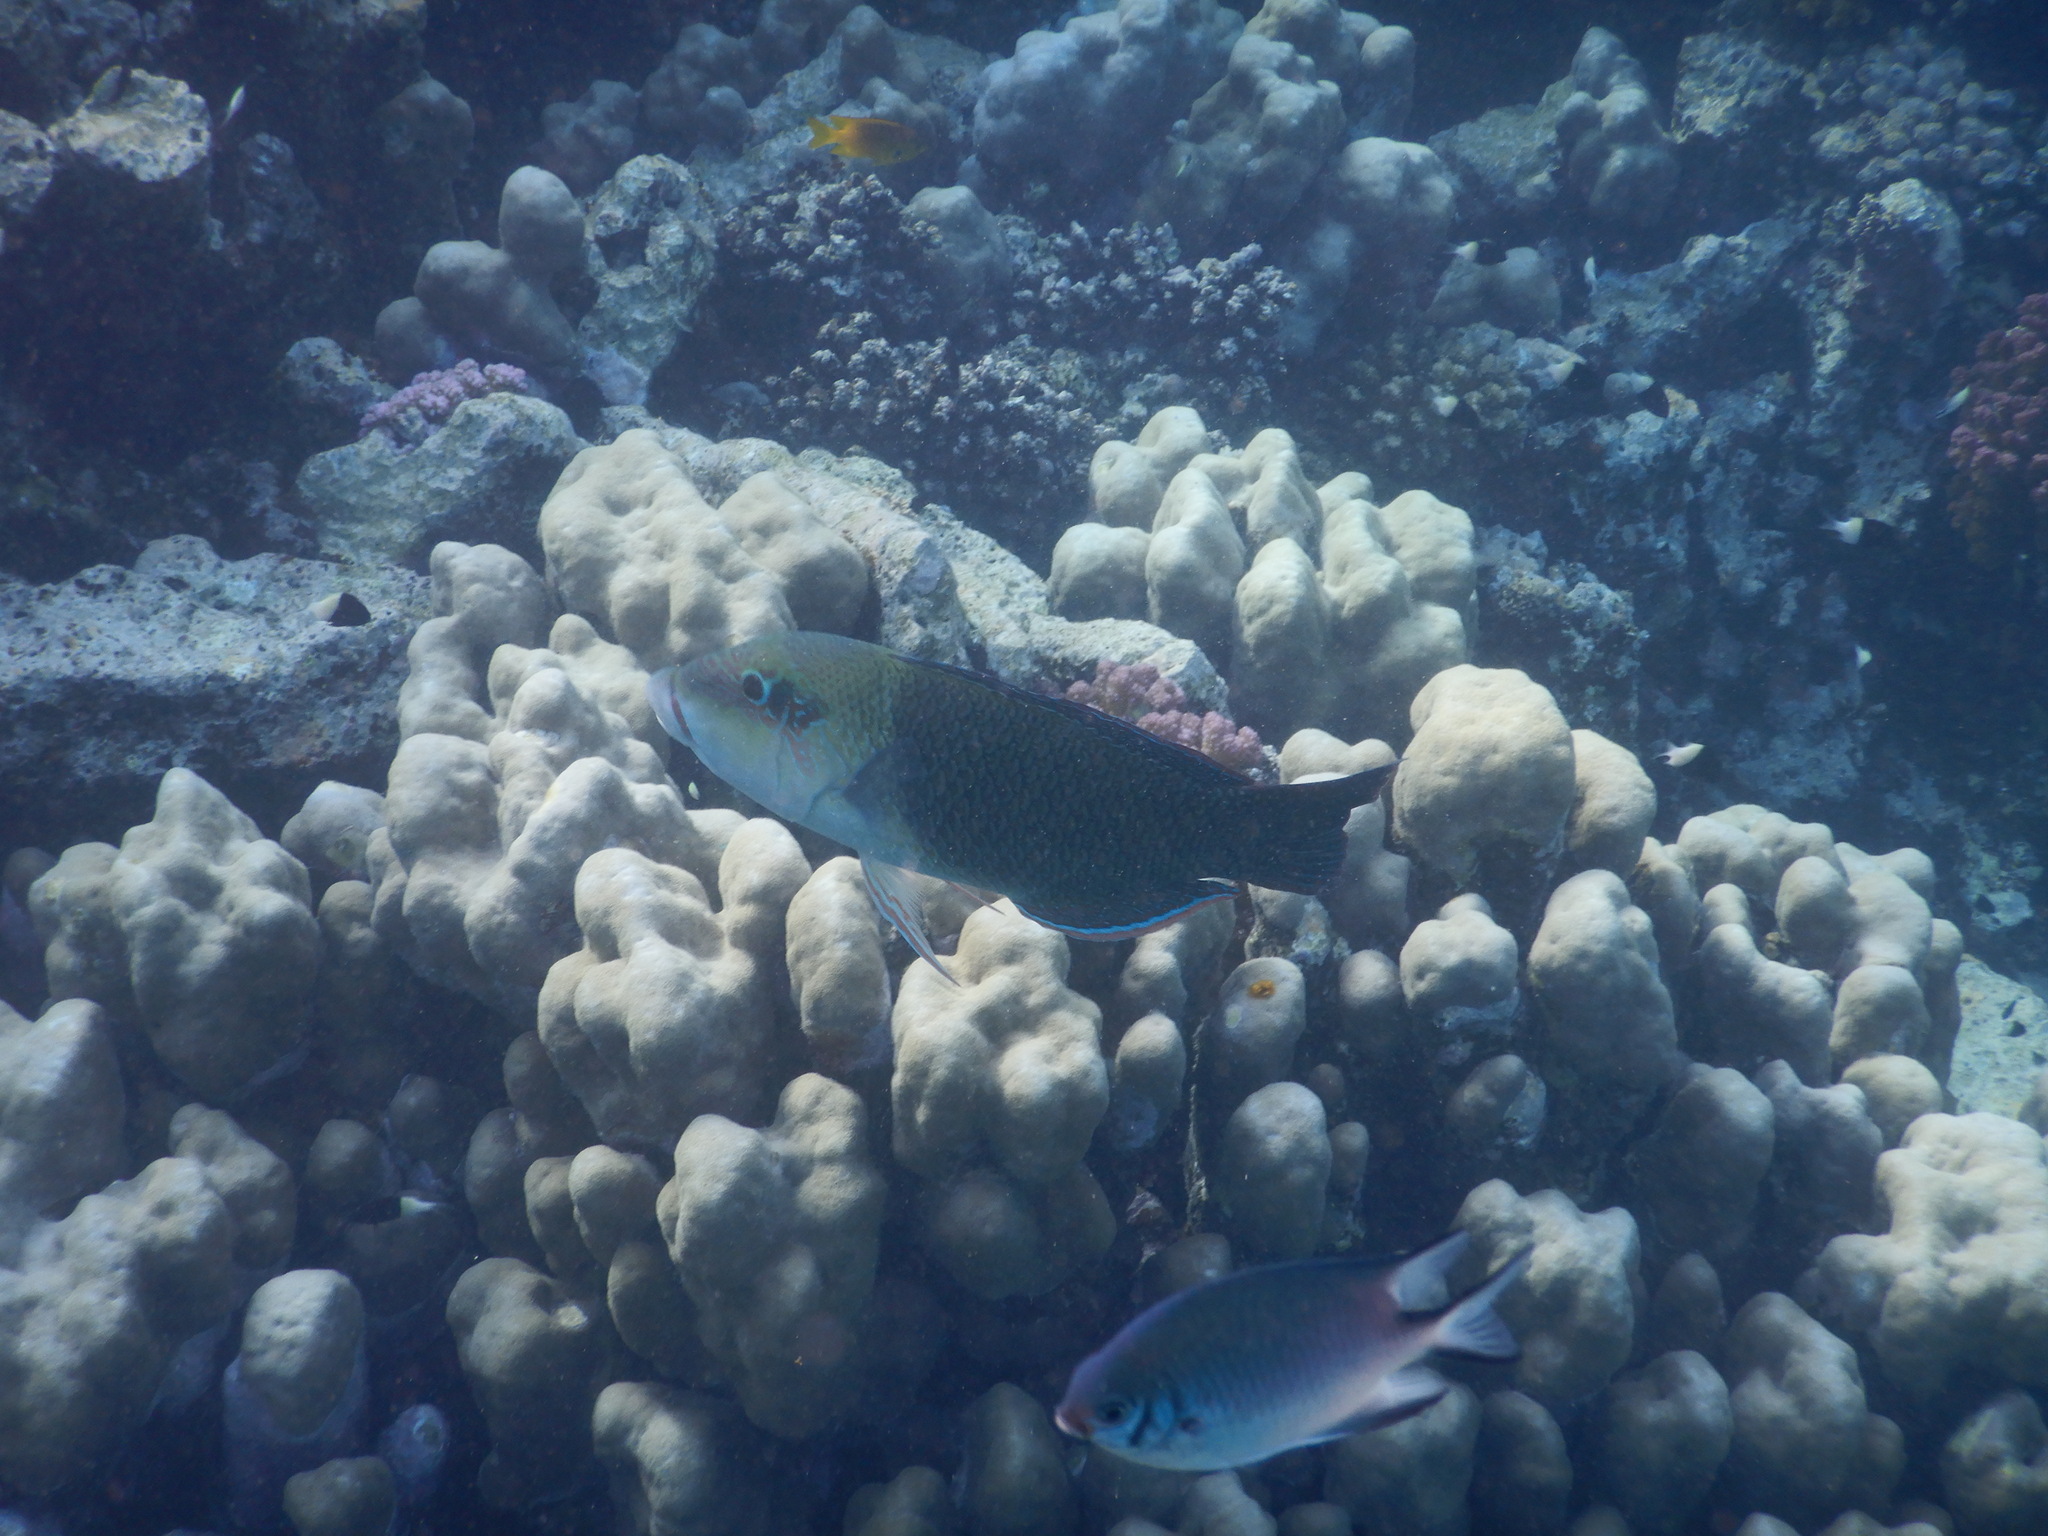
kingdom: Animalia
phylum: Chordata
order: Perciformes
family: Labridae
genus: Hemigymnus
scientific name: Hemigymnus melapterus
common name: Blackeye thicklip
